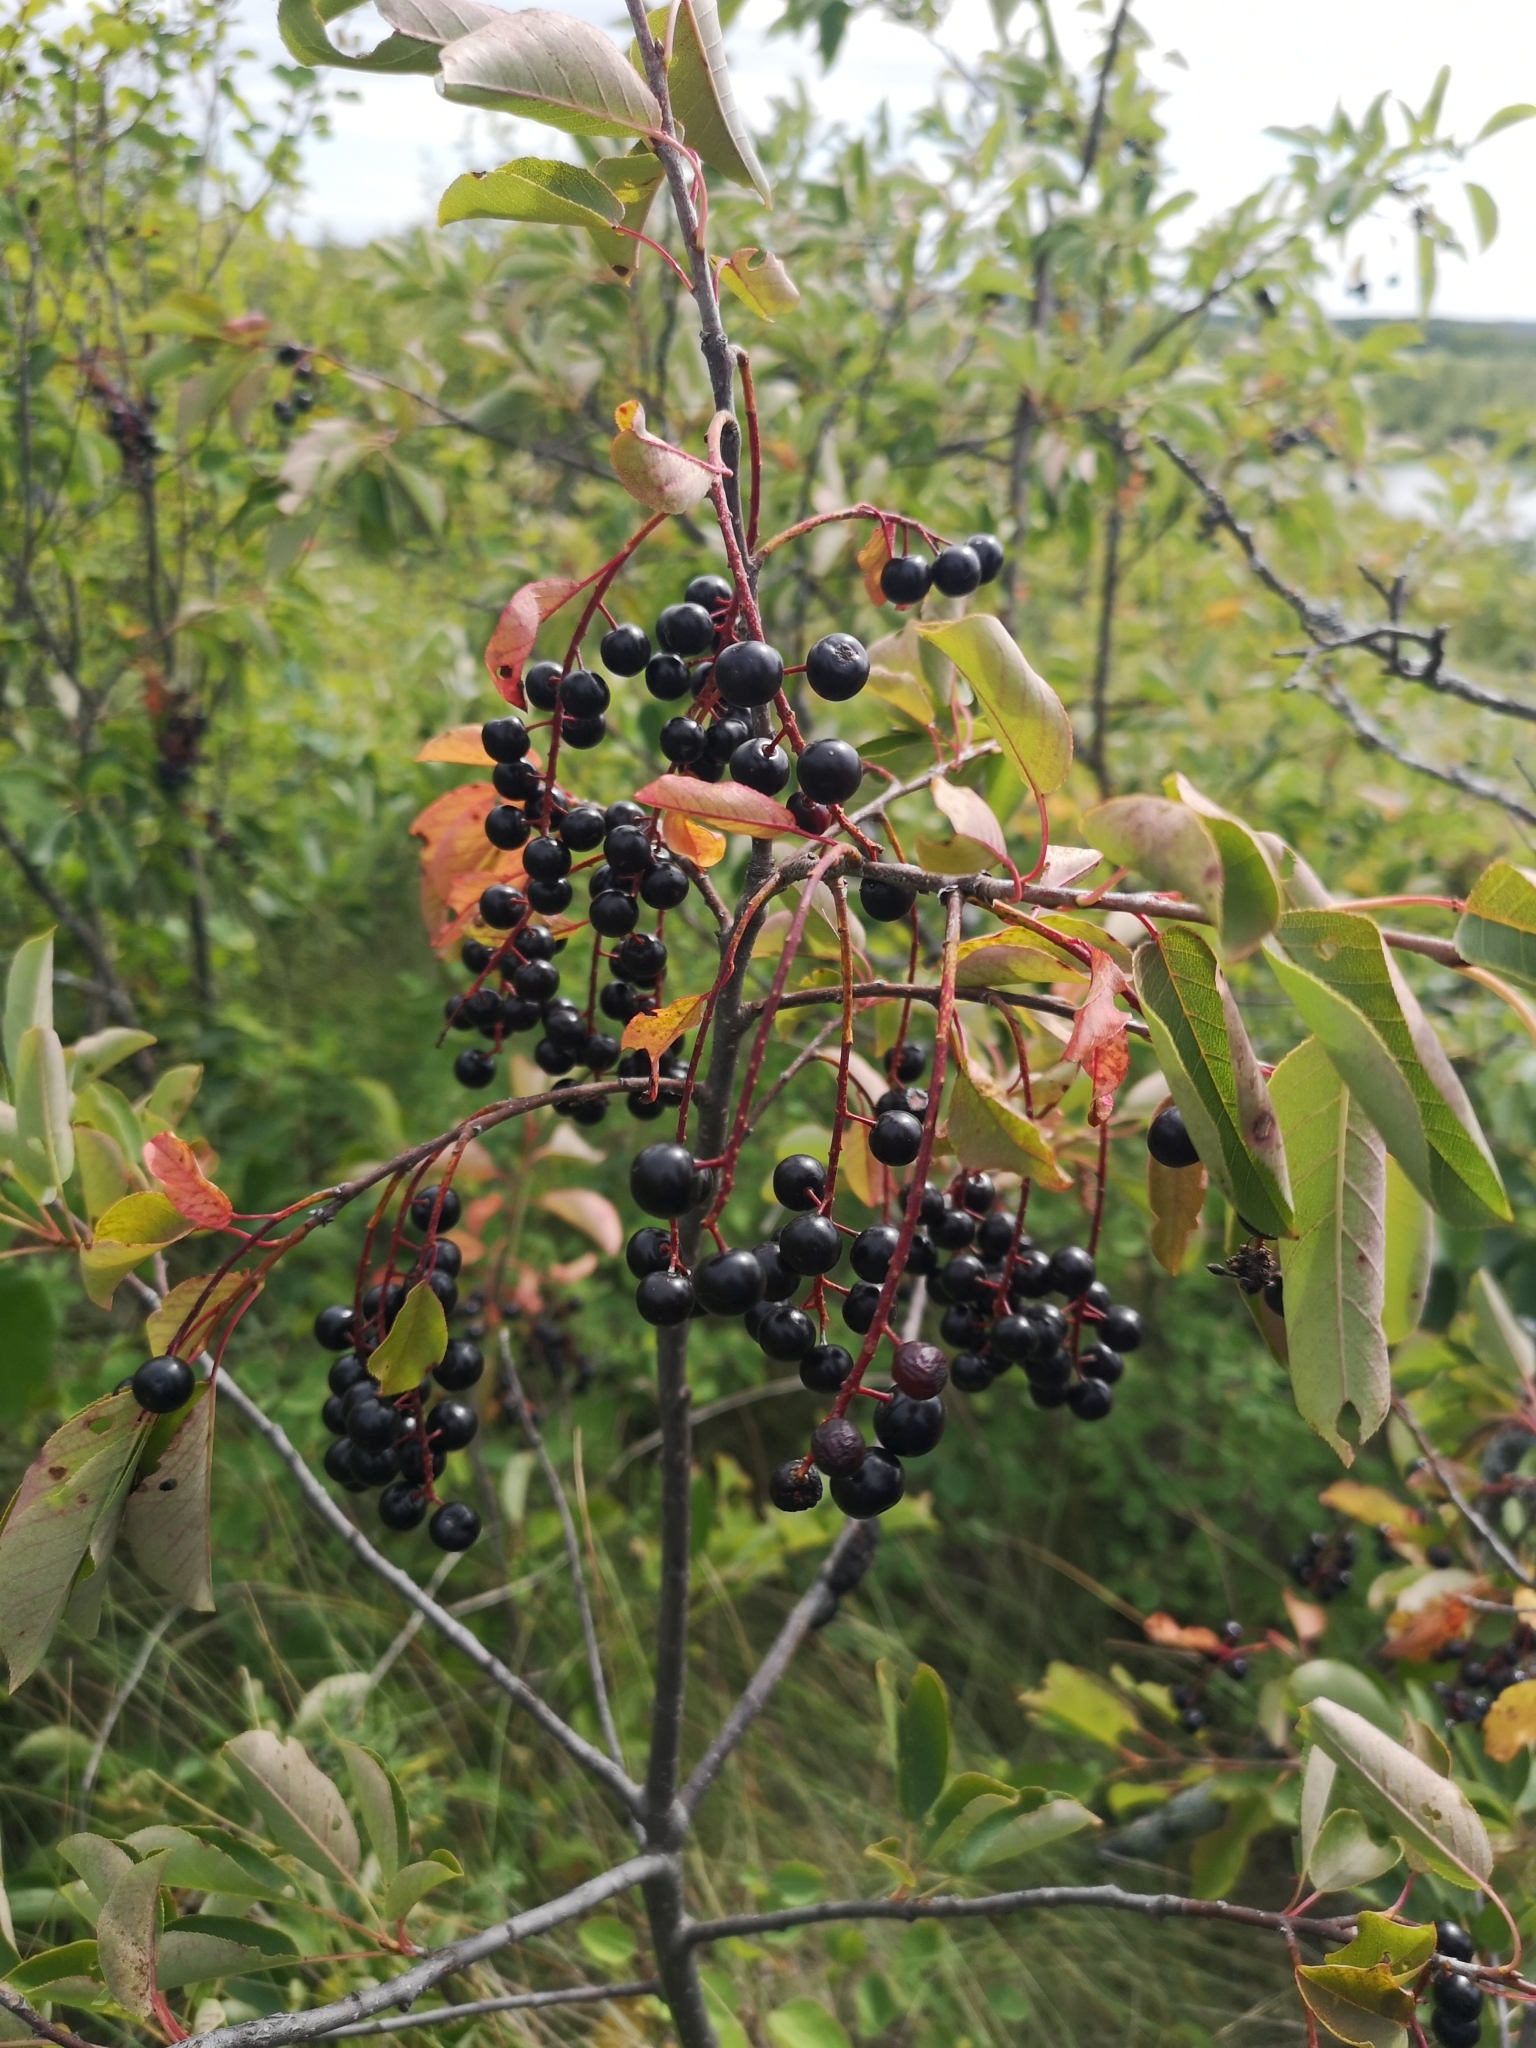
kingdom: Plantae
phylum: Tracheophyta
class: Magnoliopsida
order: Rosales
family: Rosaceae
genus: Prunus
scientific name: Prunus virginiana
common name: Chokecherry
